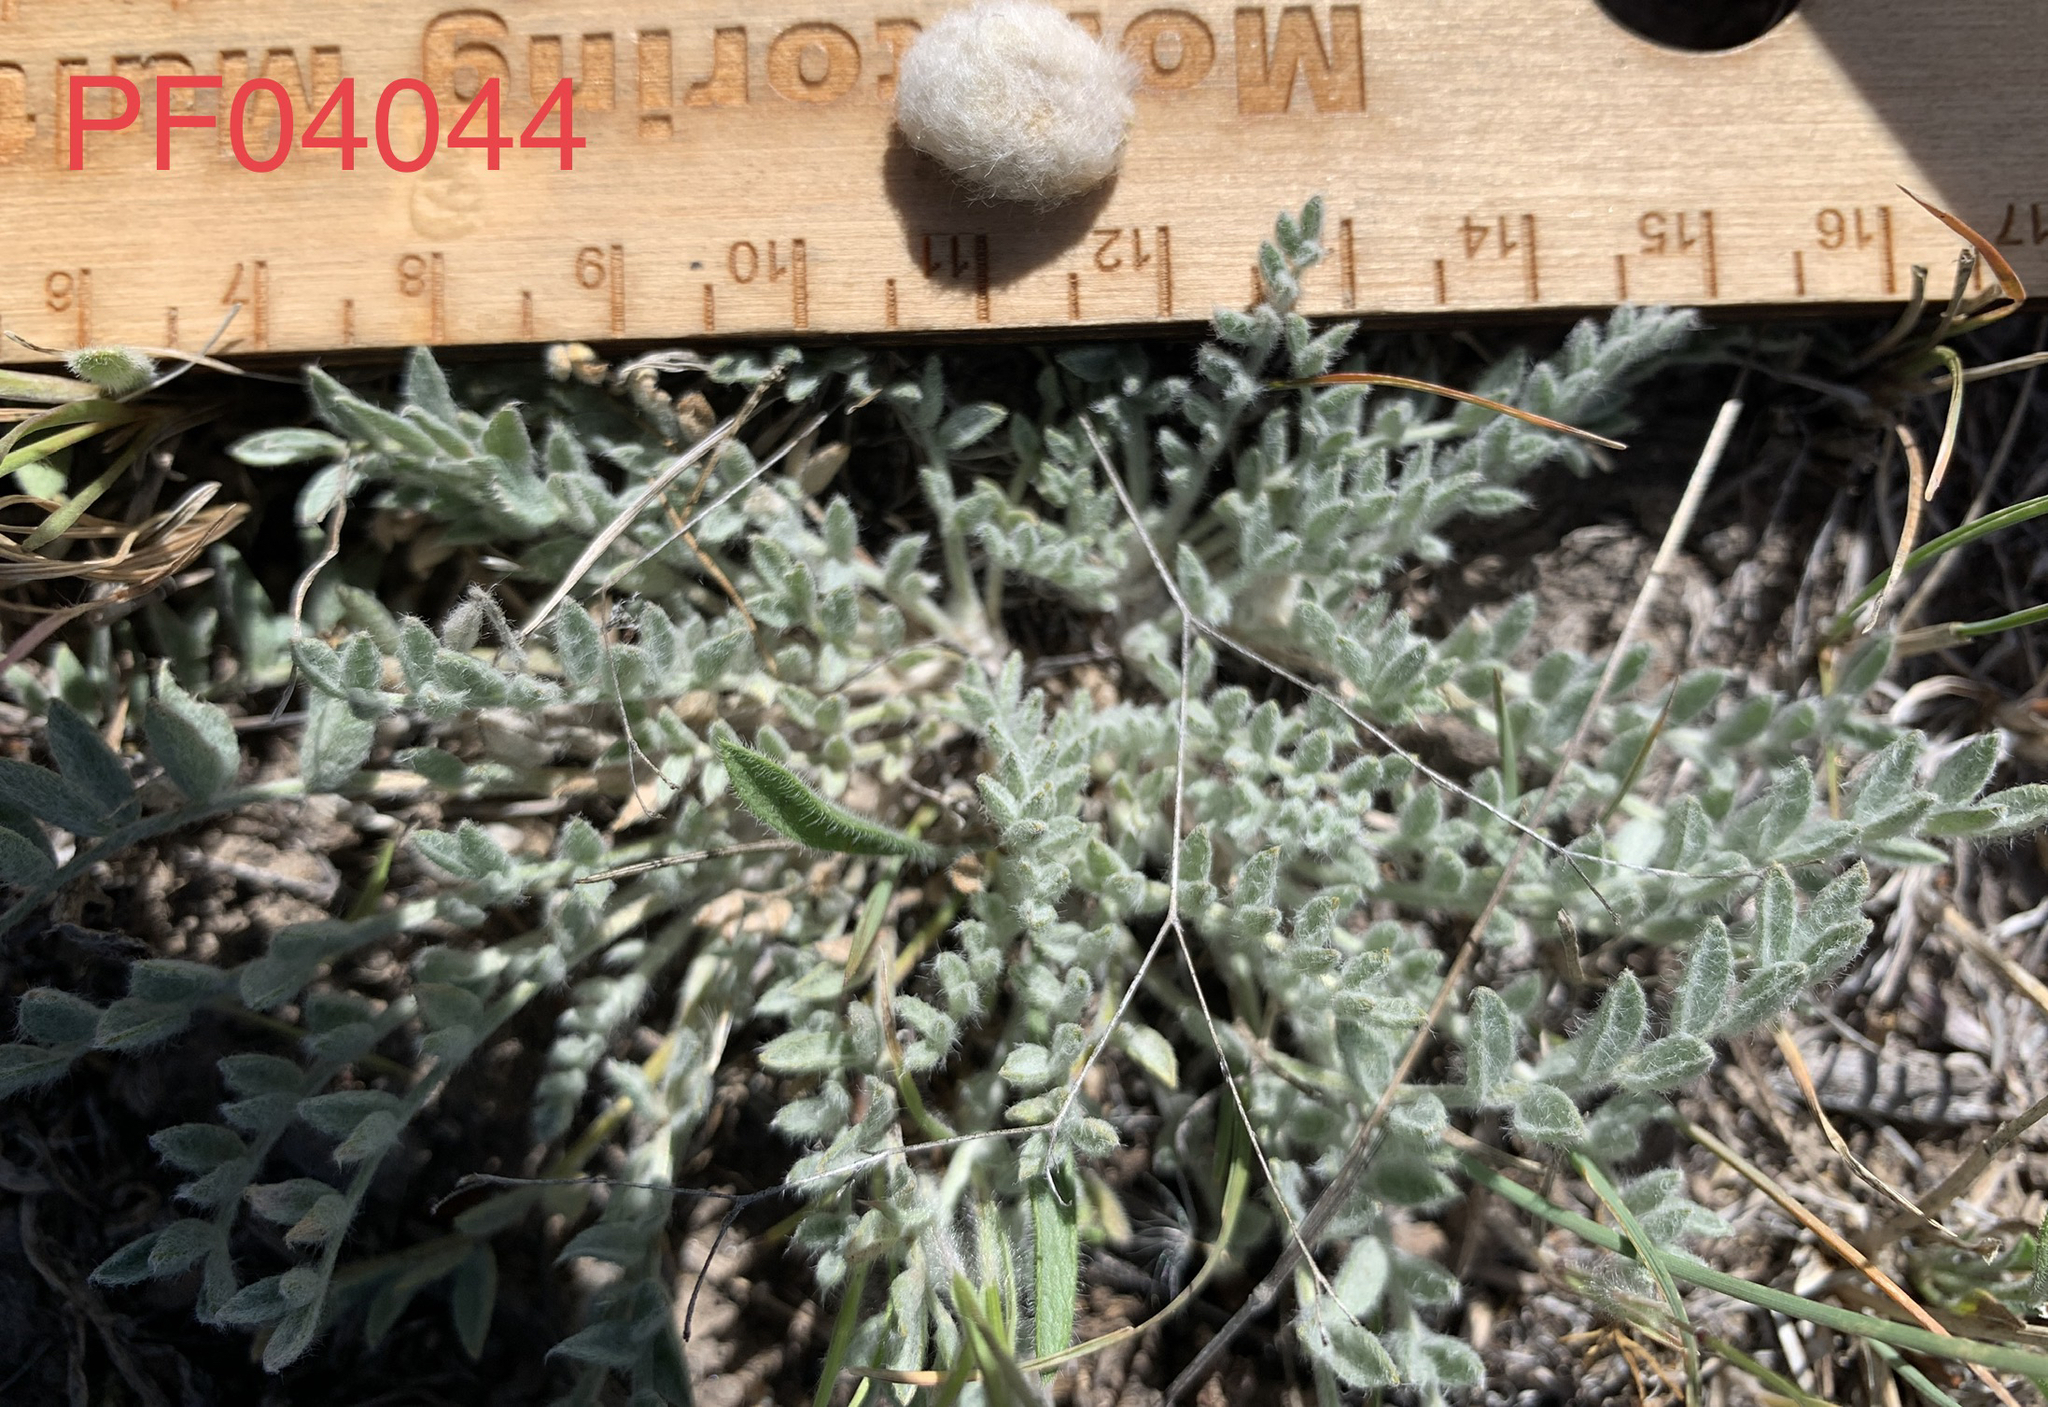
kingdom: Plantae
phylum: Tracheophyta
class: Magnoliopsida
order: Fabales
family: Fabaceae
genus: Astragalus
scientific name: Astragalus purshii
